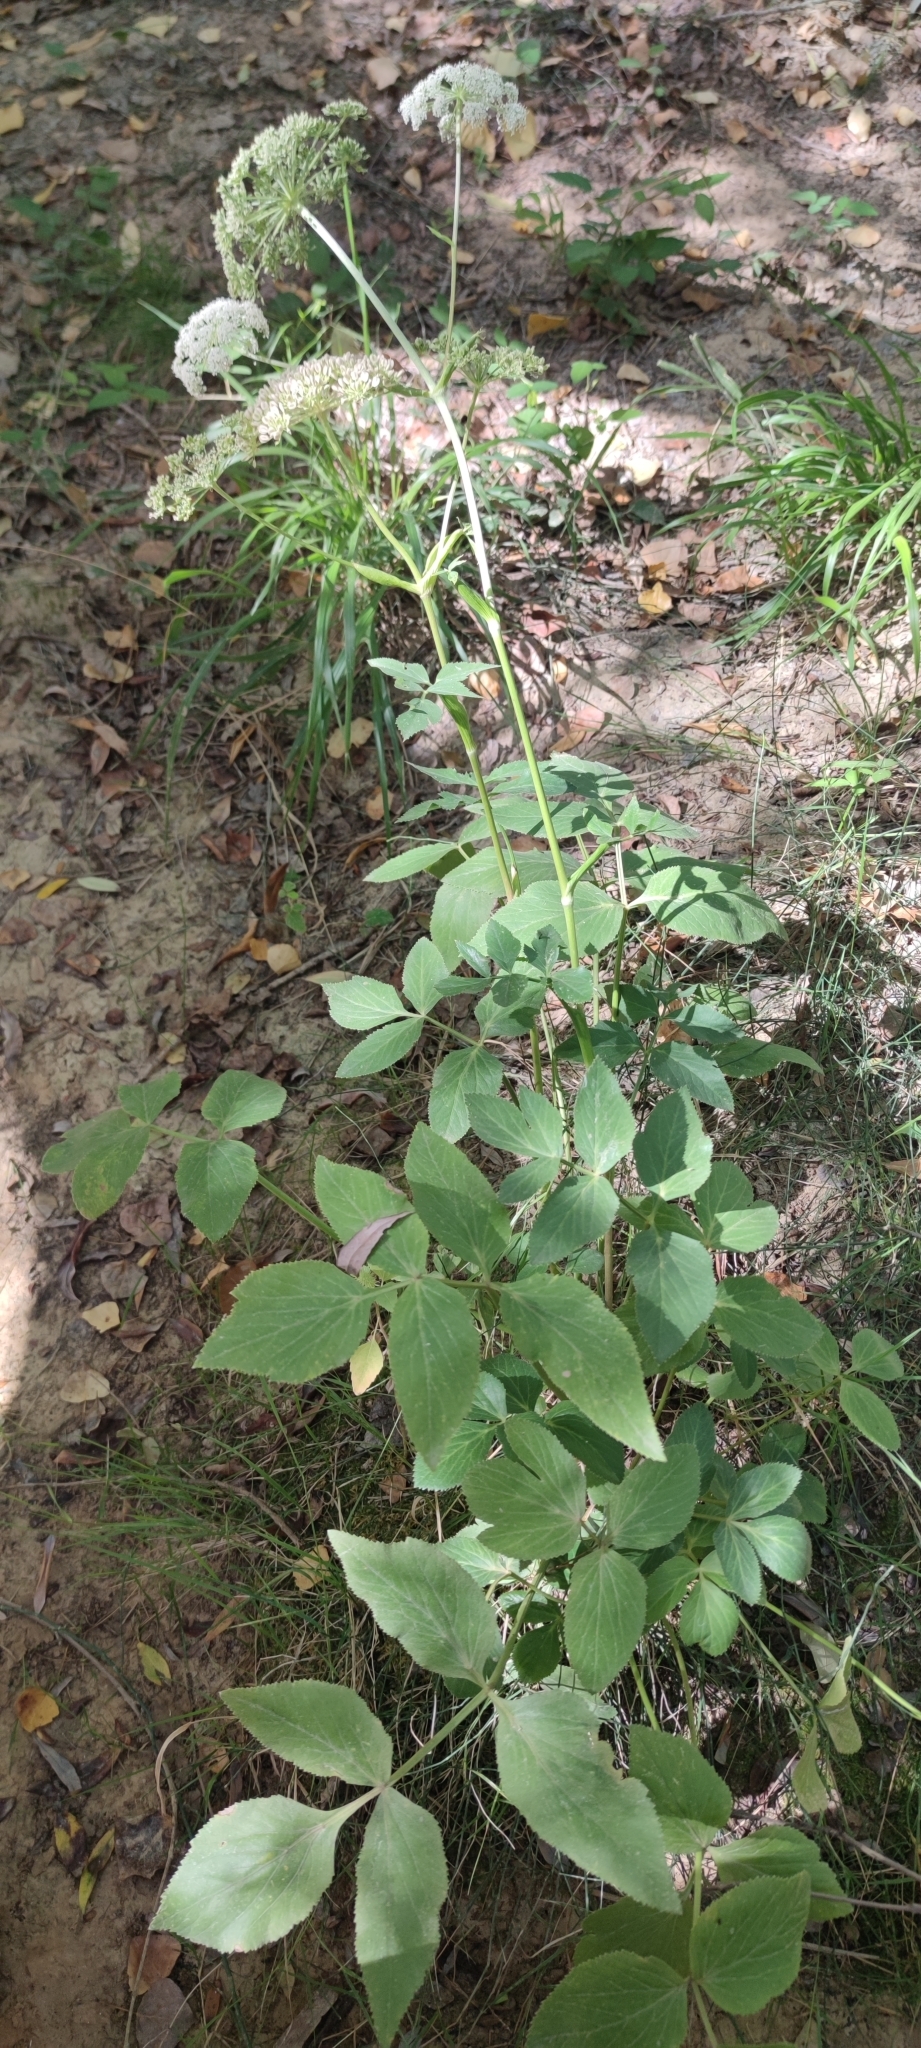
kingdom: Plantae
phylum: Tracheophyta
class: Magnoliopsida
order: Apiales
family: Apiaceae
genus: Peucedanum
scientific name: Peucedanum hispanicum
